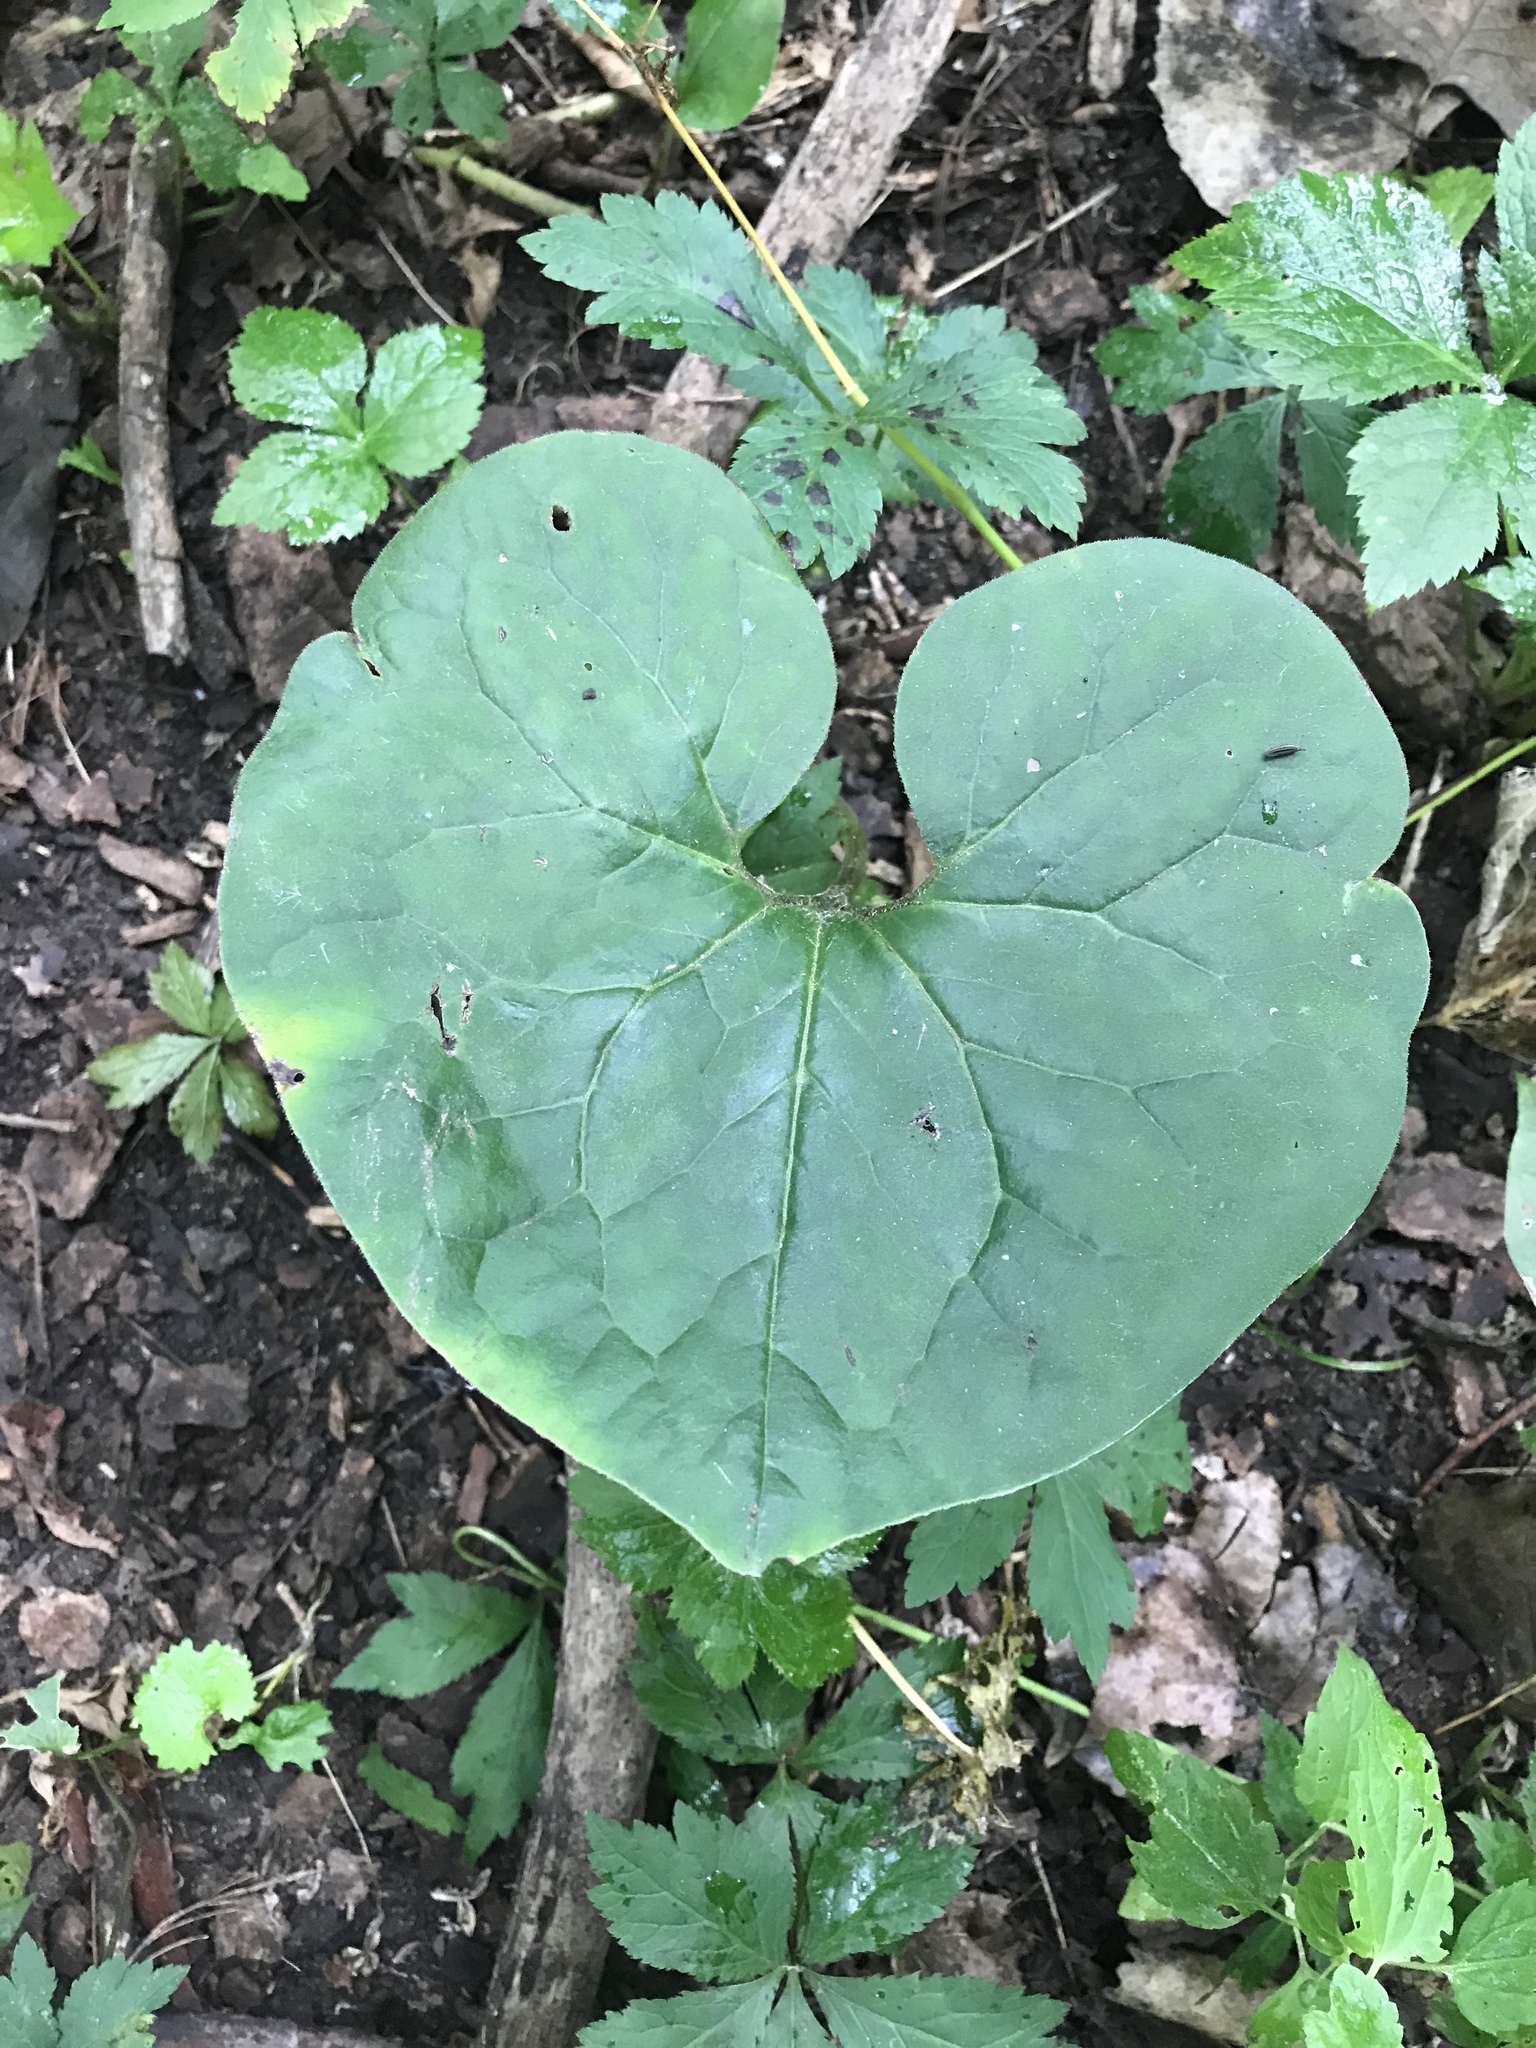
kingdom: Plantae
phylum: Tracheophyta
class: Magnoliopsida
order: Piperales
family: Aristolochiaceae
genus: Asarum
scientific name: Asarum canadense
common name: Wild ginger
